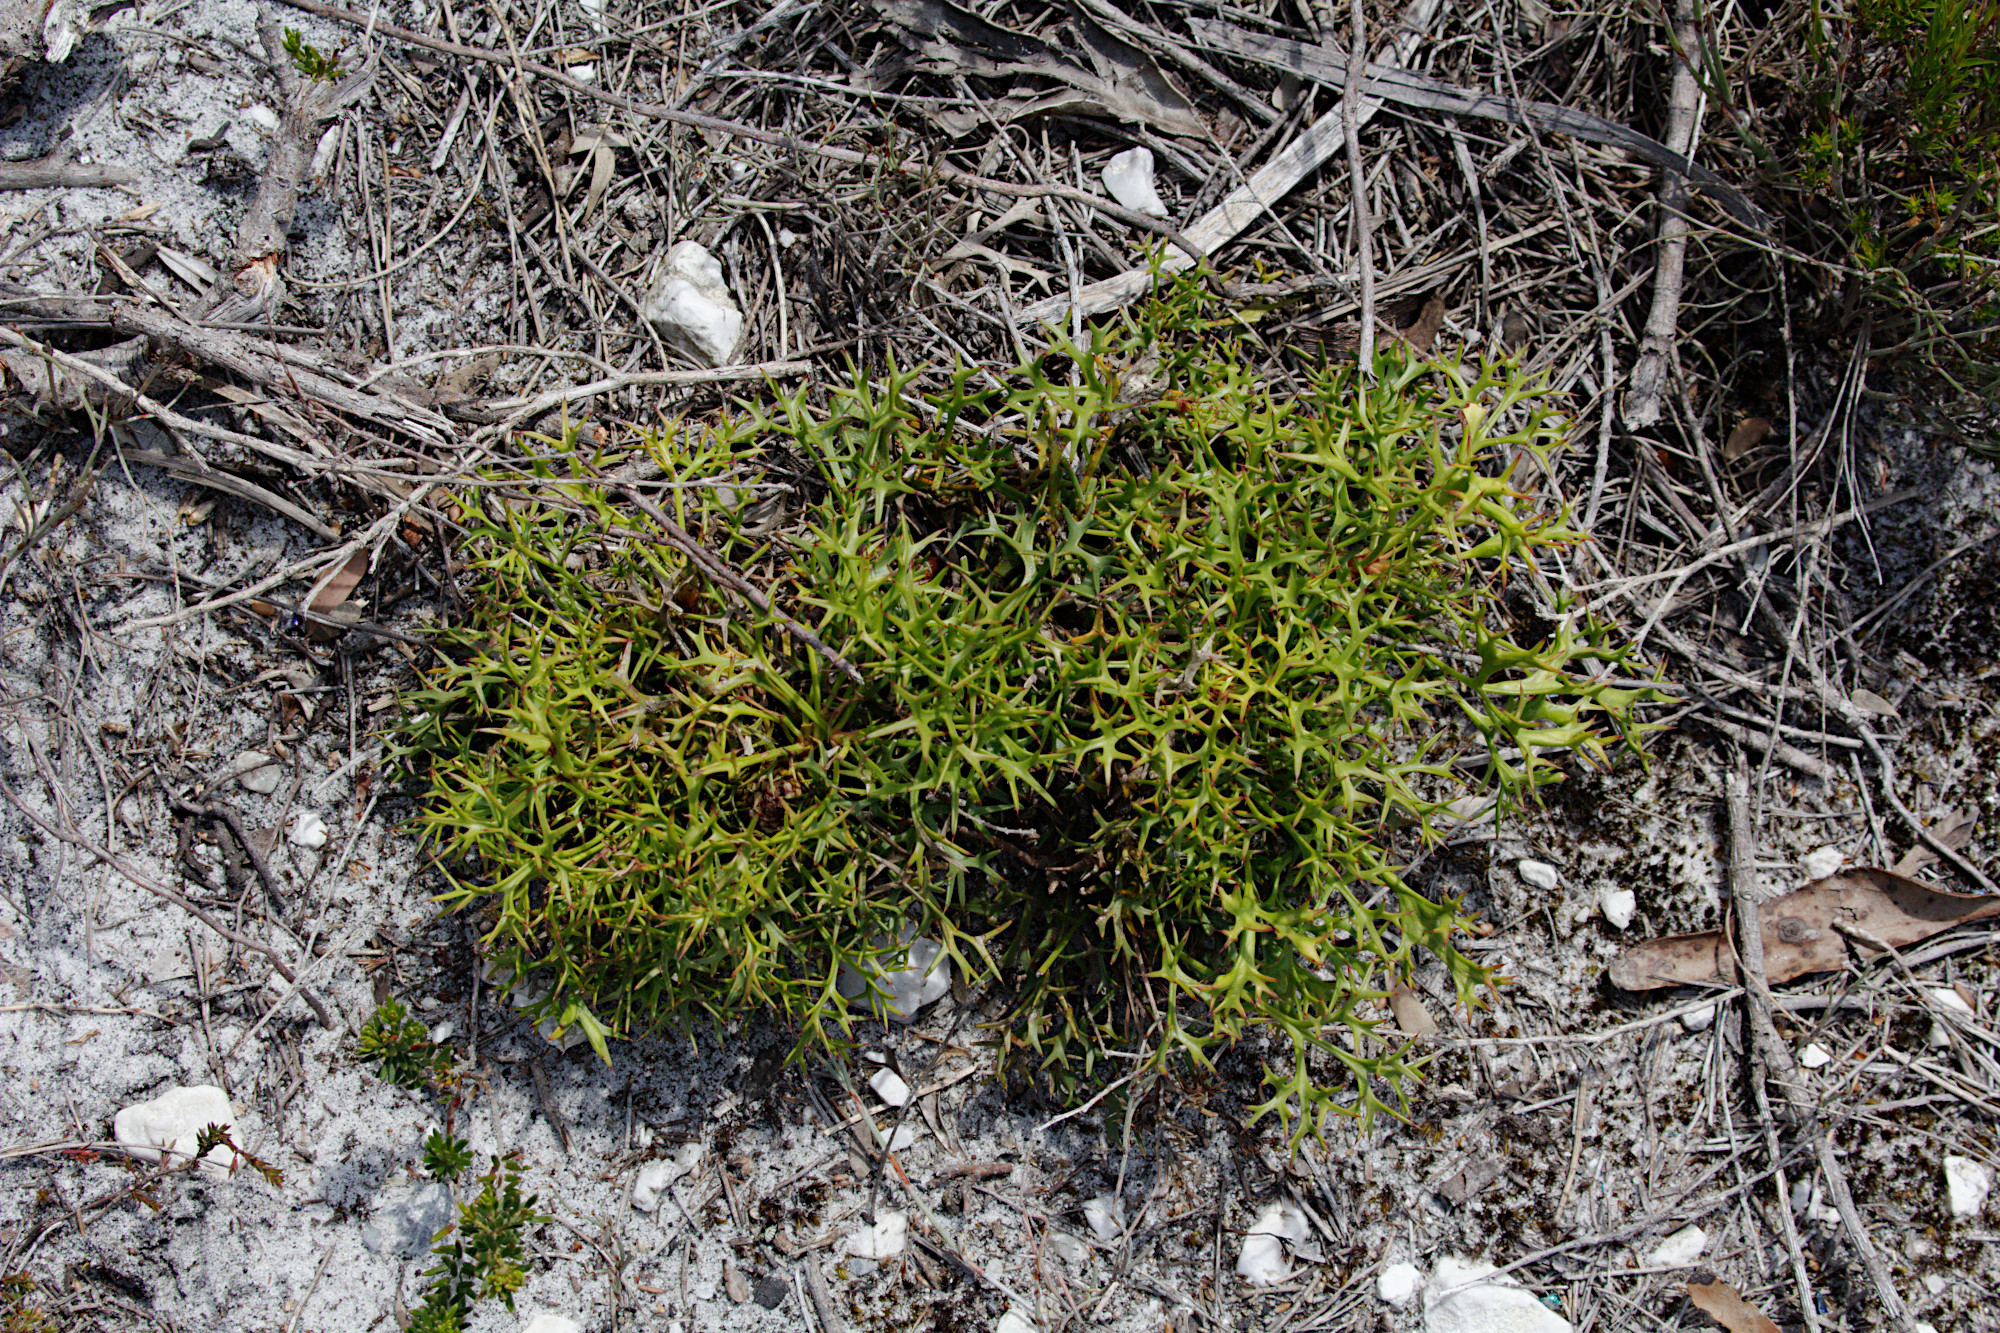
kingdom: Plantae
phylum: Tracheophyta
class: Magnoliopsida
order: Proteales
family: Proteaceae
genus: Isopogon
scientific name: Isopogon ceratophyllus
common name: Horny cone-bush
